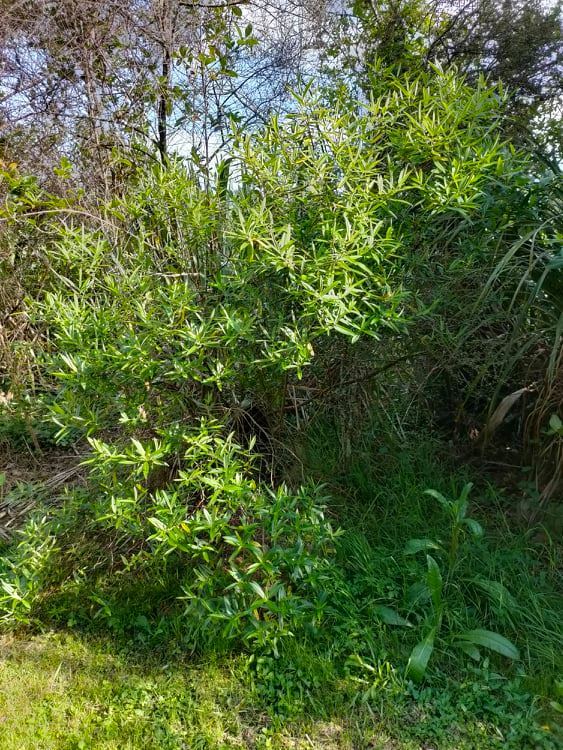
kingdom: Plantae
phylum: Tracheophyta
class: Magnoliopsida
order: Lamiales
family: Plantaginaceae
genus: Veronica
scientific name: Veronica stricta
